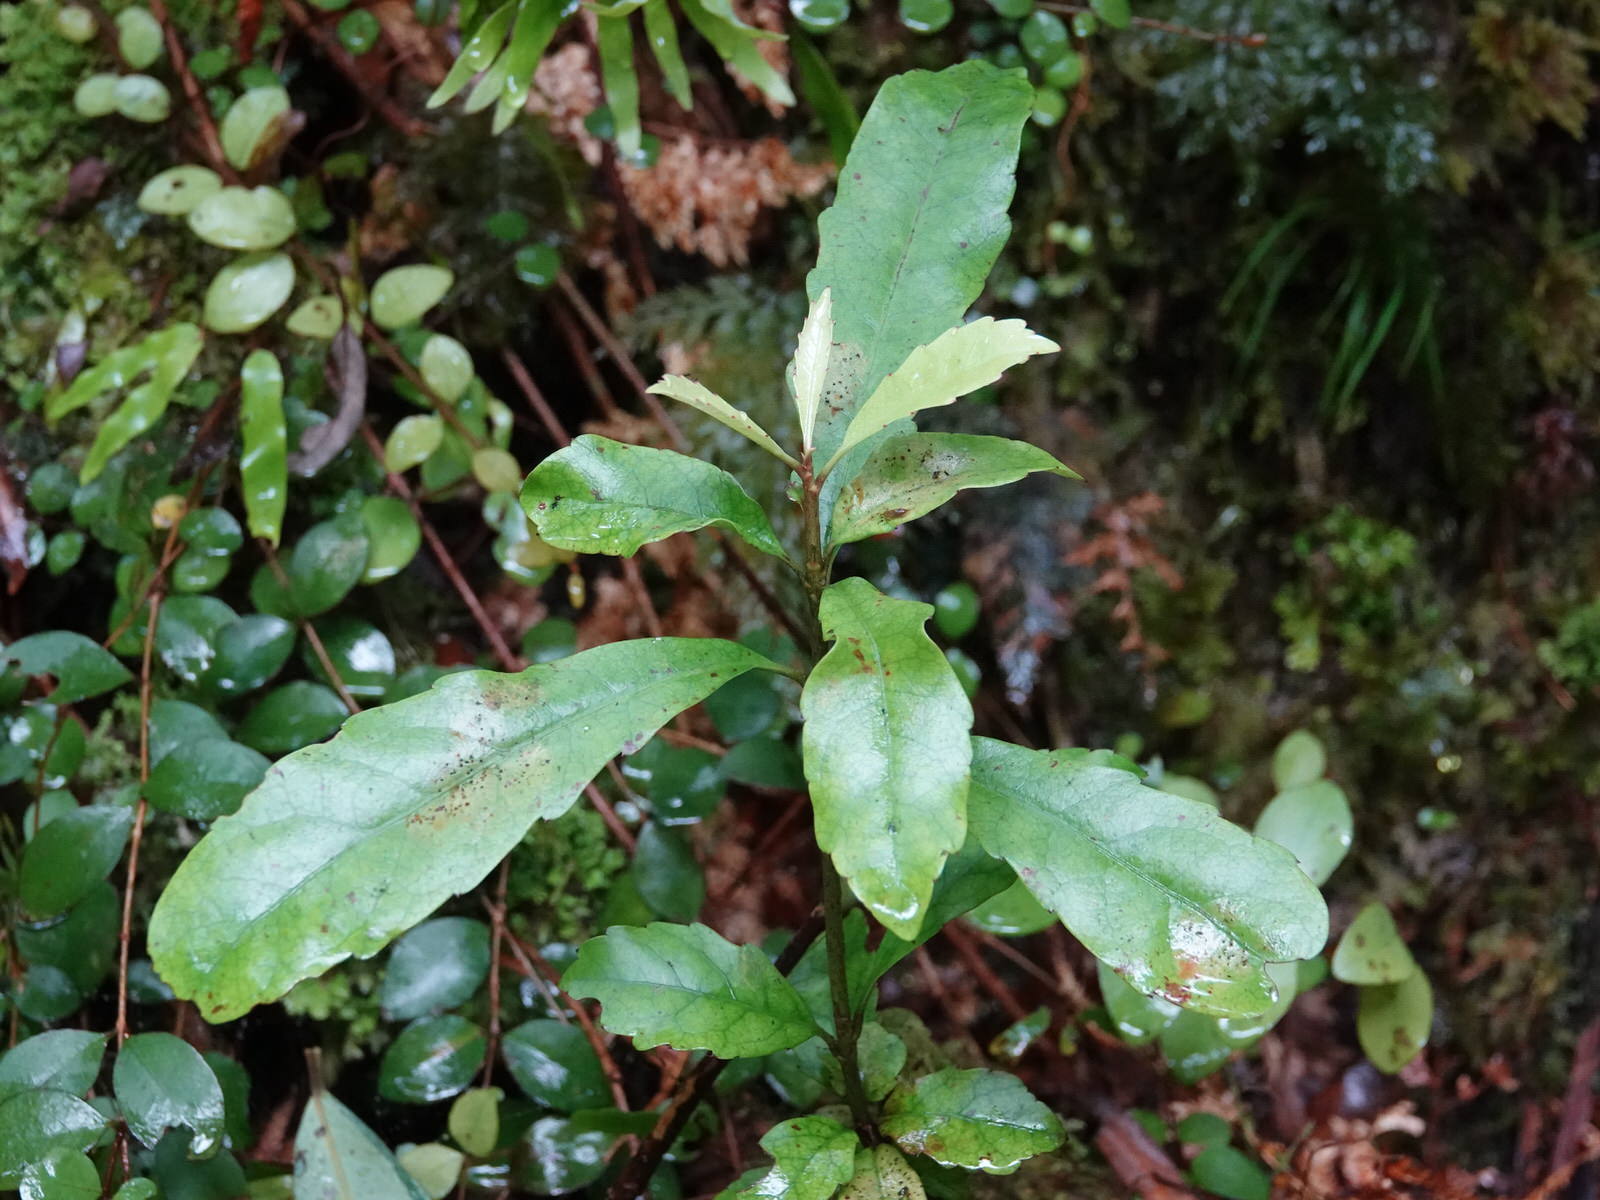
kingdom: Plantae
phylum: Tracheophyta
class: Magnoliopsida
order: Asterales
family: Alseuosmiaceae
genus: Alseuosmia
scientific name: Alseuosmia macrophylla
